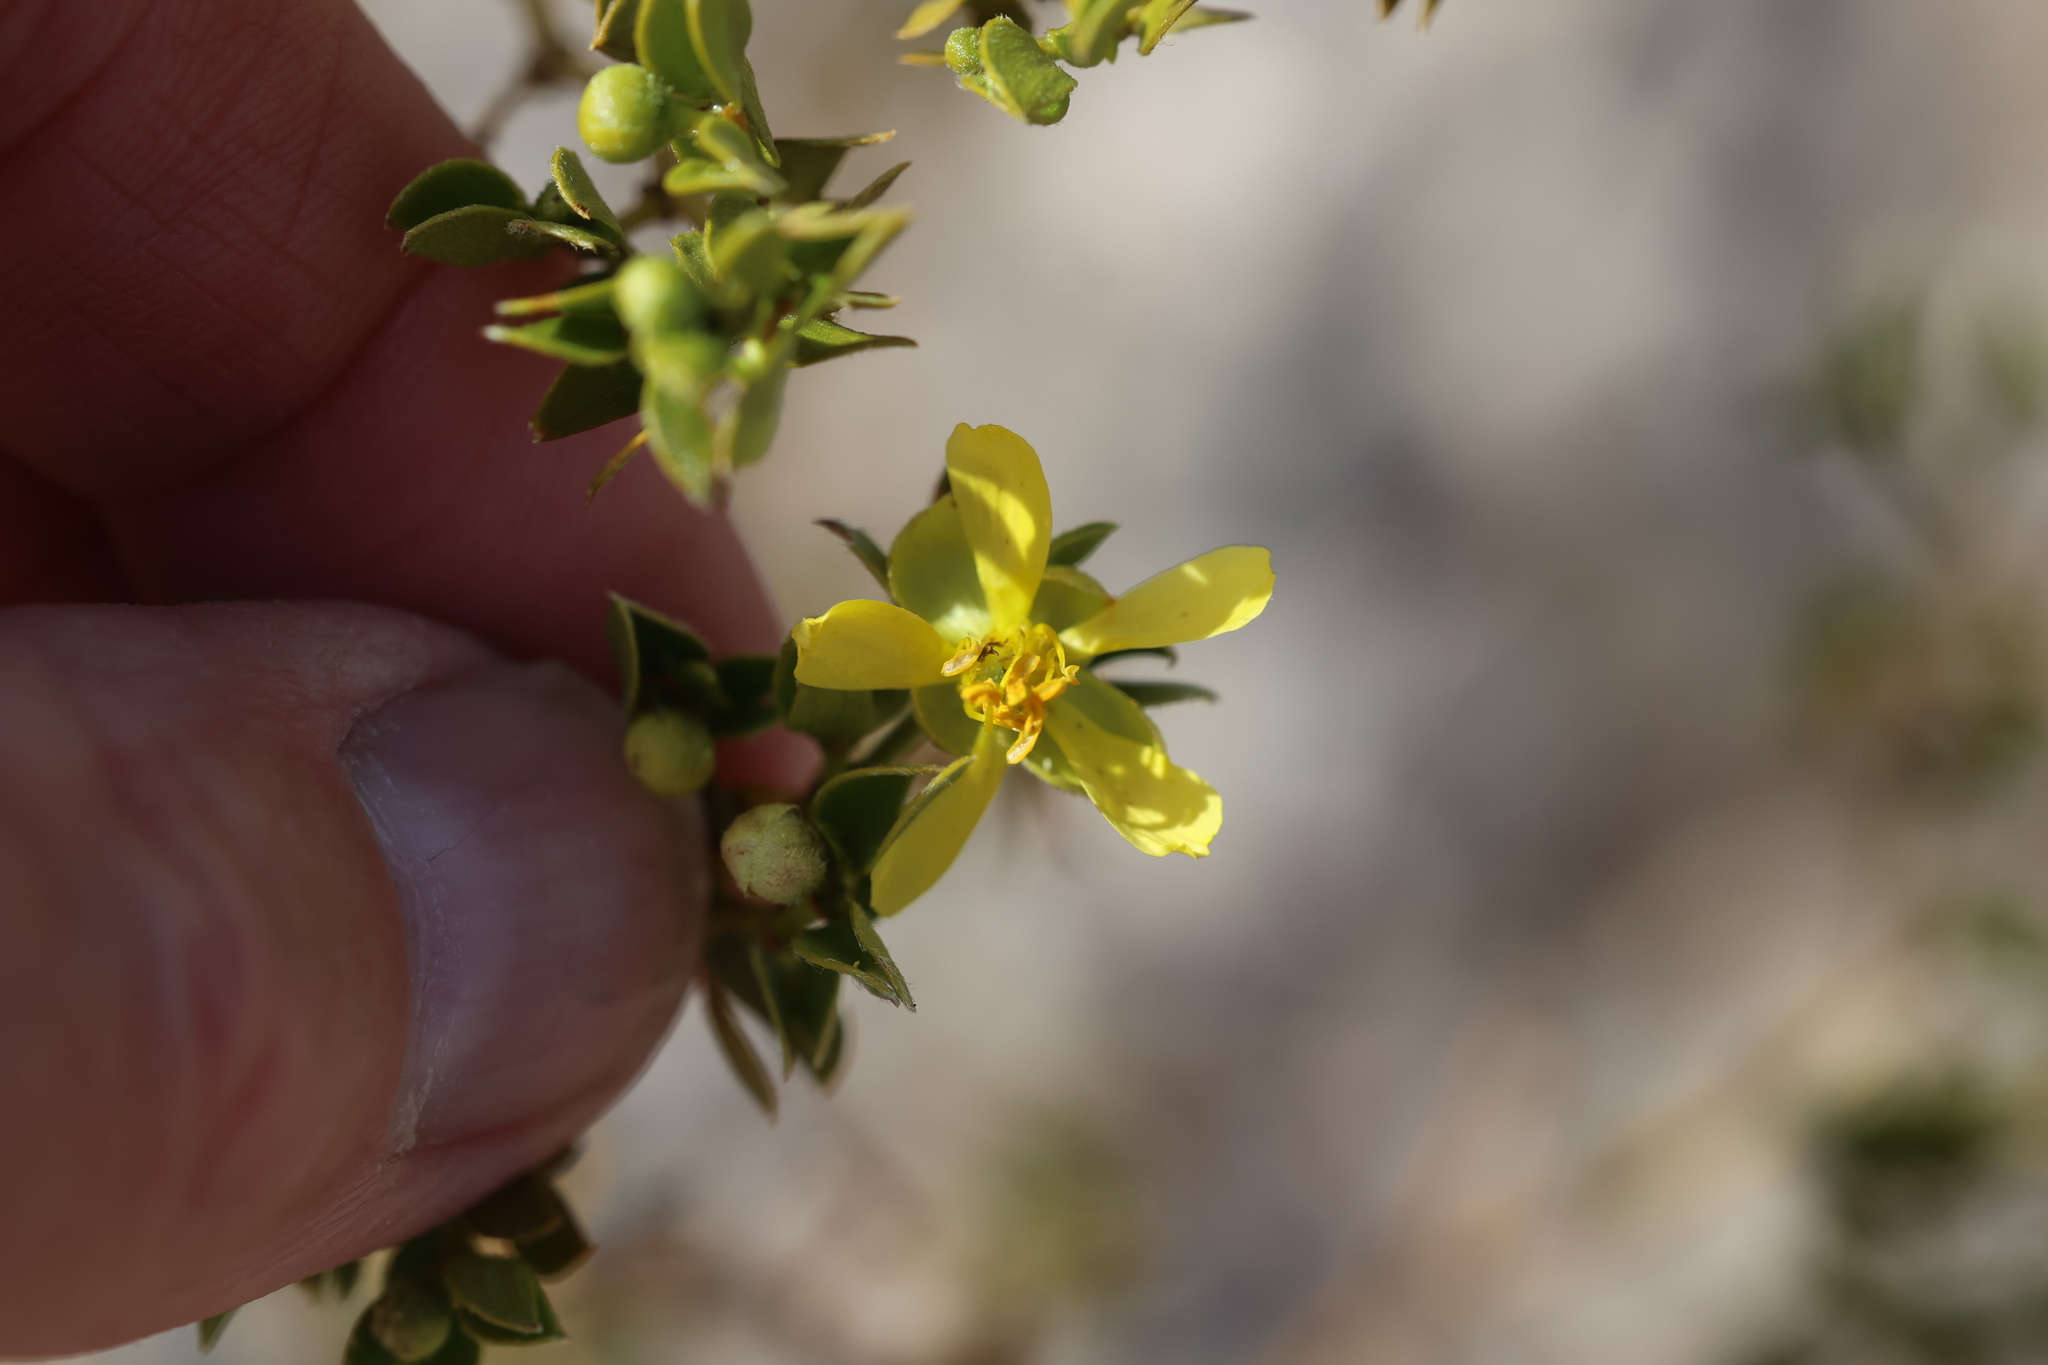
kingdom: Plantae
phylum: Tracheophyta
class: Magnoliopsida
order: Zygophyllales
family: Zygophyllaceae
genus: Larrea
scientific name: Larrea tridentata
